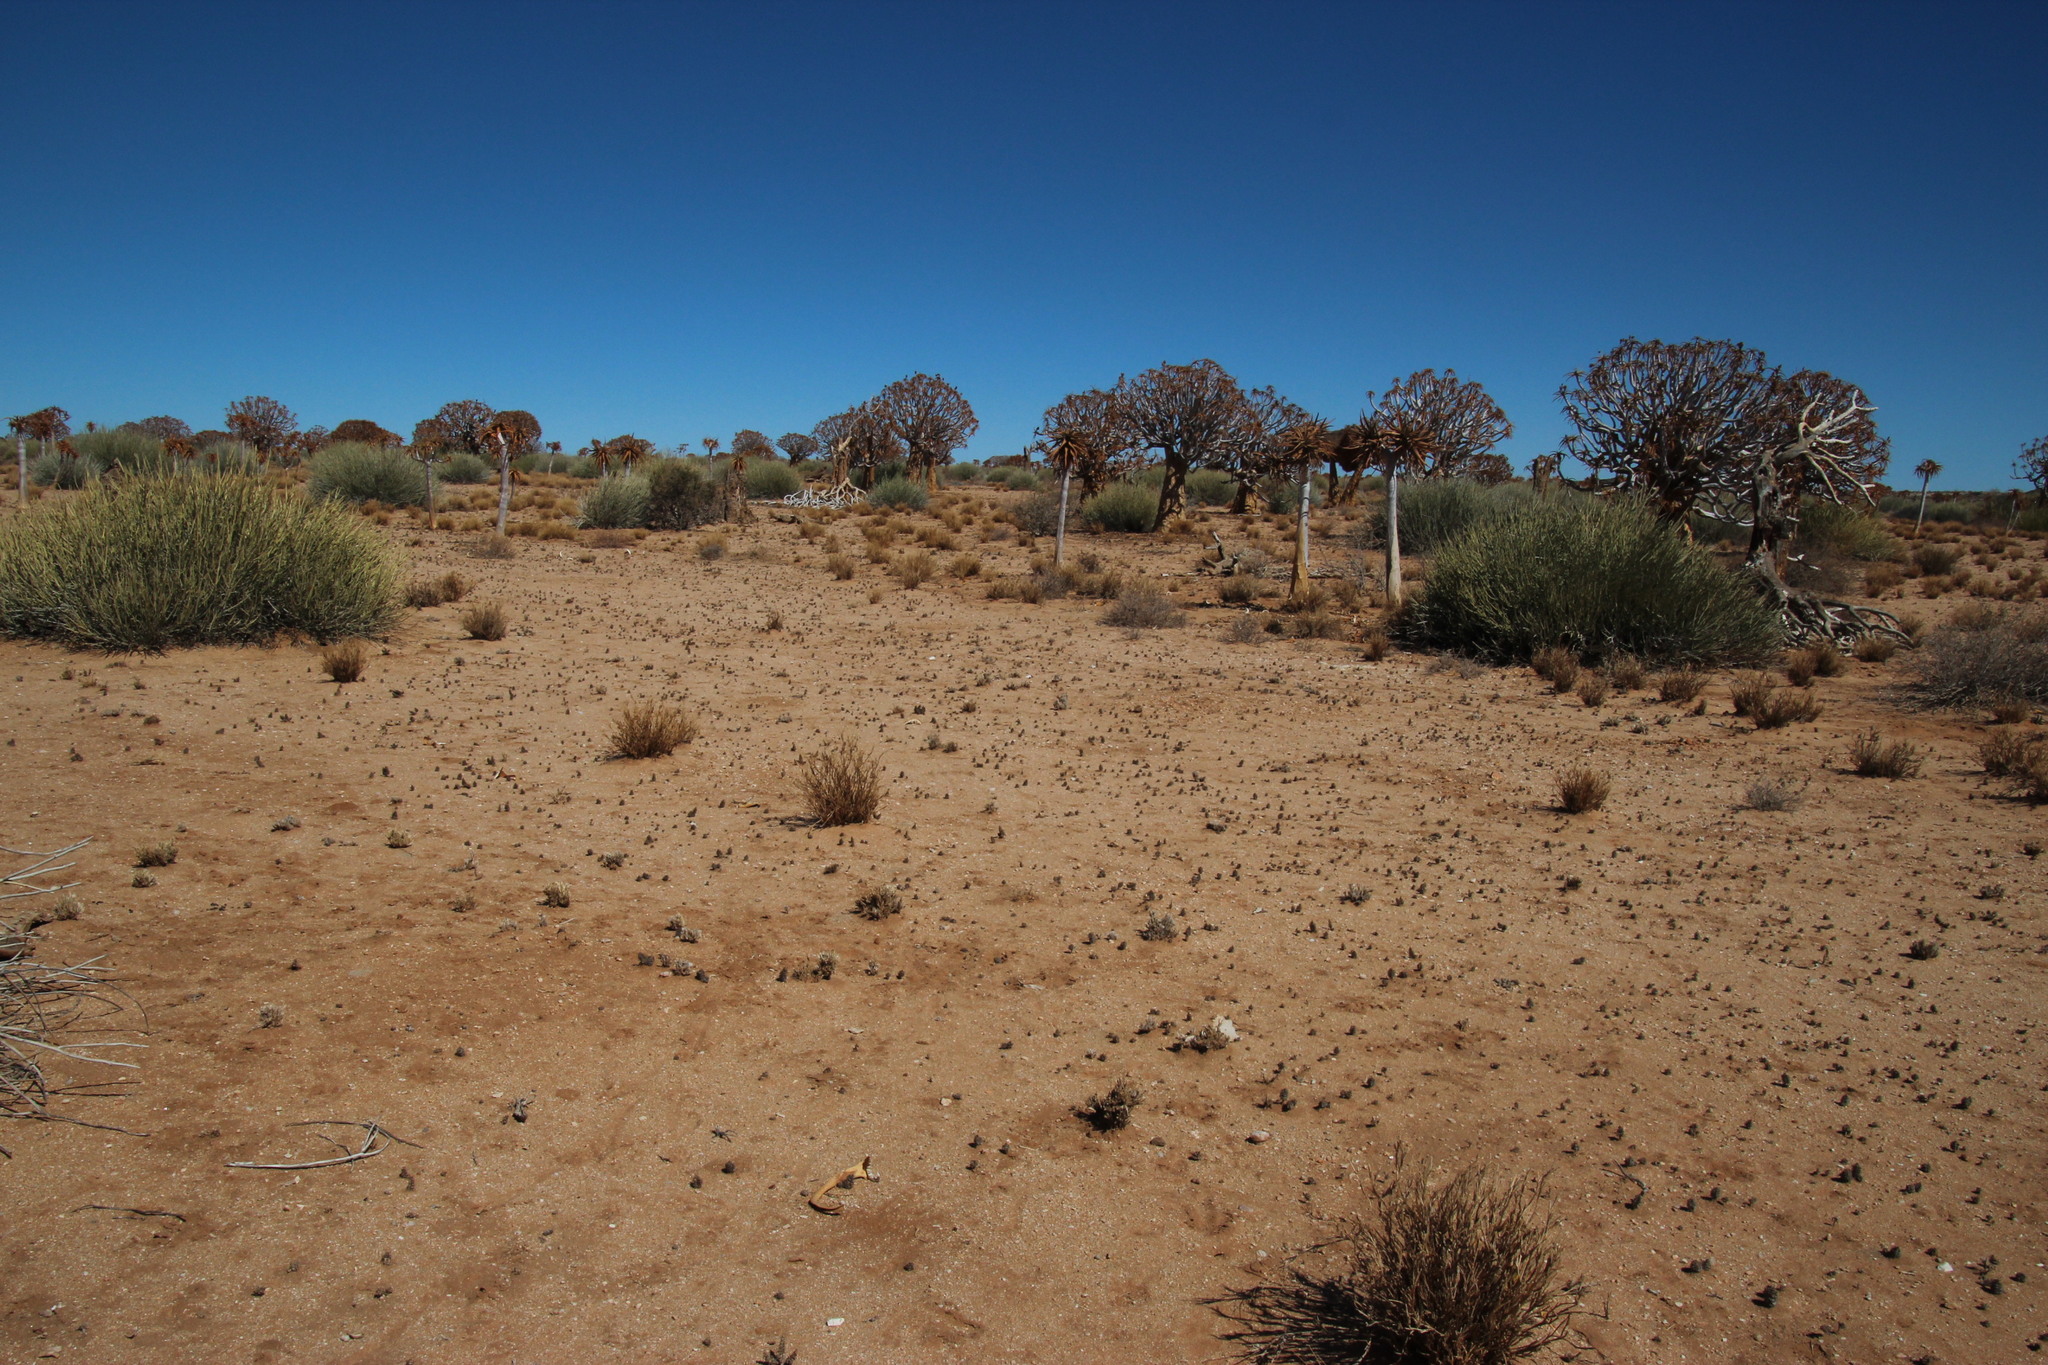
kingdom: Plantae
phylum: Tracheophyta
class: Liliopsida
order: Asparagales
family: Asphodelaceae
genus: Aloidendron
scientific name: Aloidendron dichotomum
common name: Quiver tree
